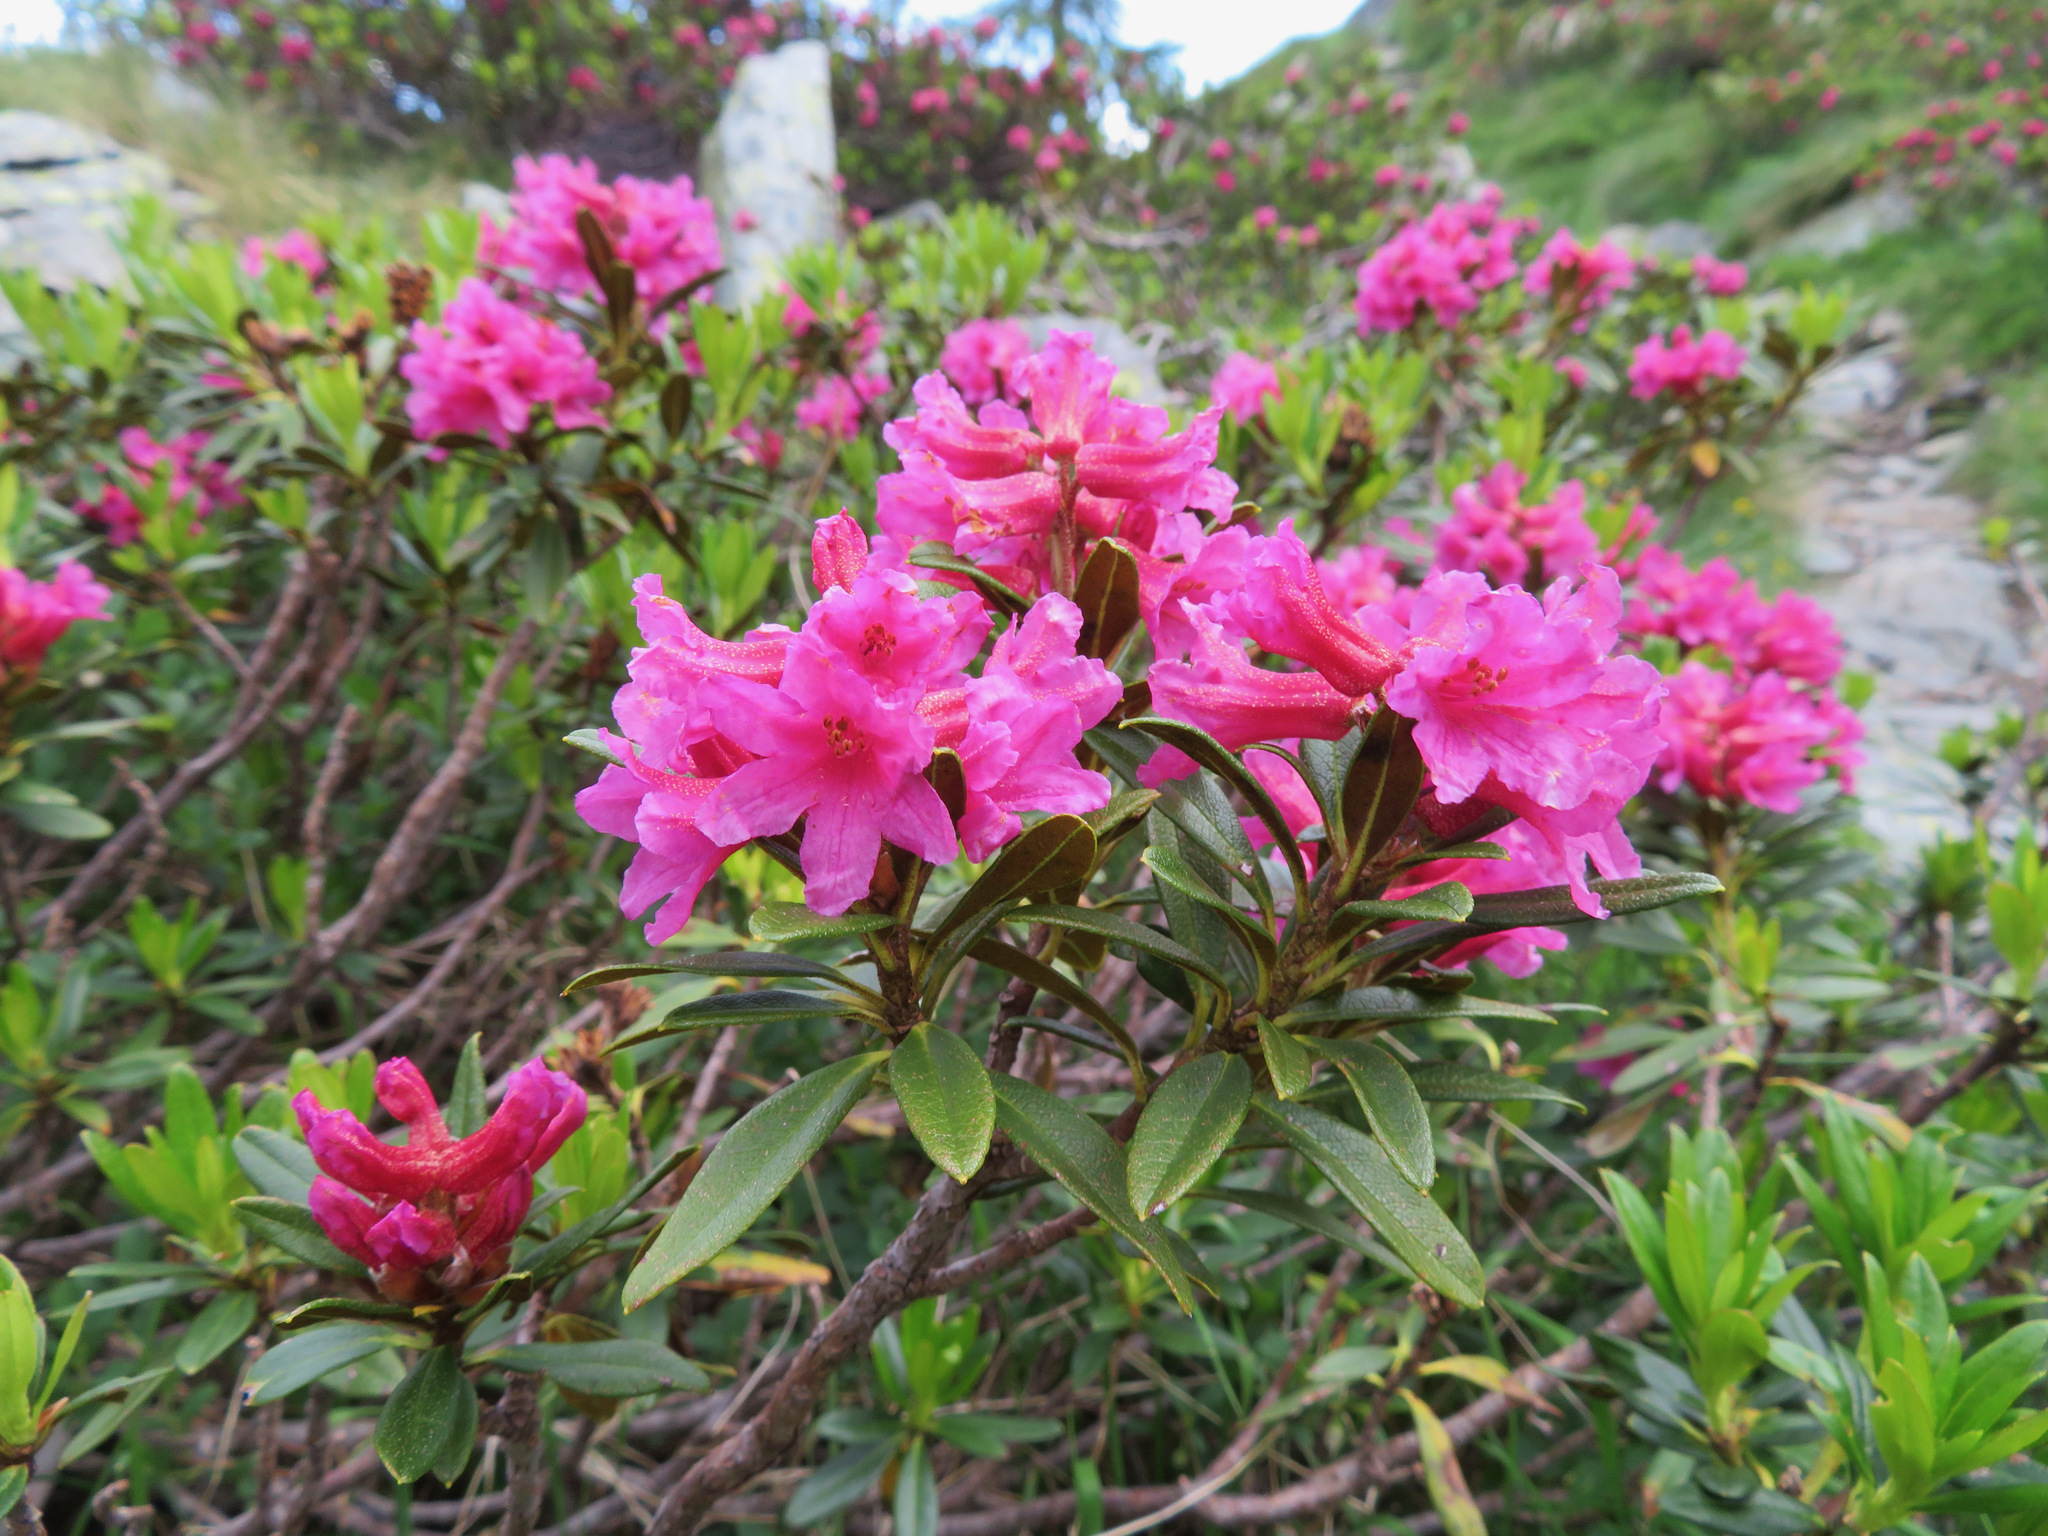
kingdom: Plantae
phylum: Tracheophyta
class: Magnoliopsida
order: Ericales
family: Ericaceae
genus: Rhododendron
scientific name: Rhododendron ferrugineum
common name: Alpenrose
